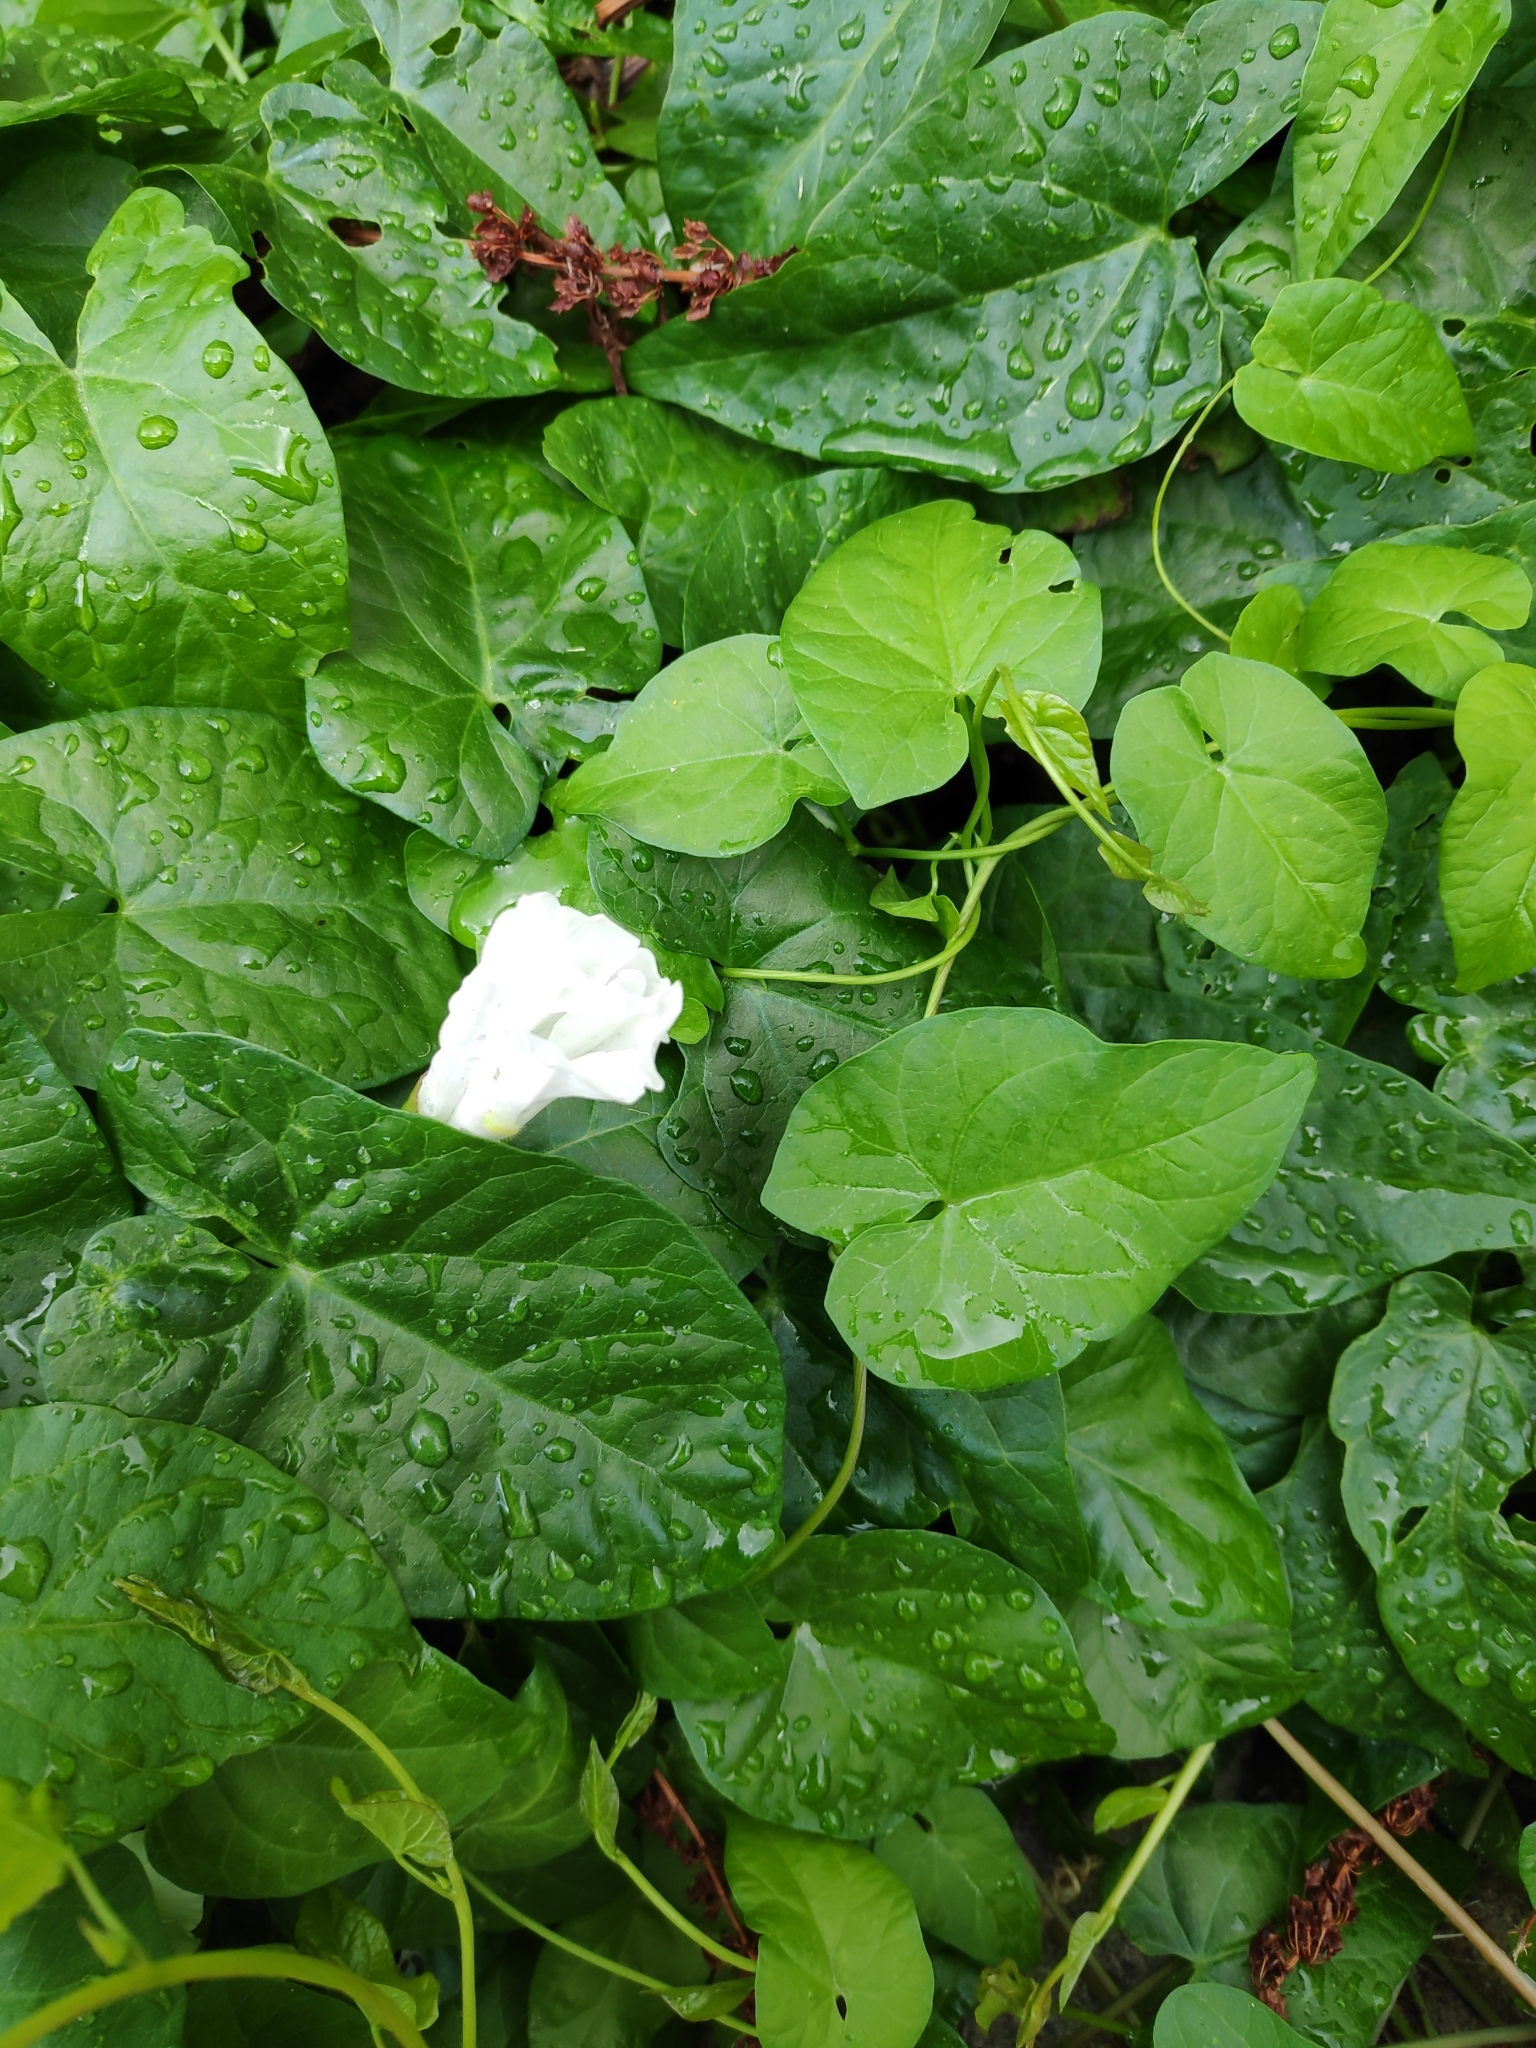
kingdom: Plantae
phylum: Tracheophyta
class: Magnoliopsida
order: Solanales
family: Convolvulaceae
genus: Calystegia
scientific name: Calystegia sepium
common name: Hedge bindweed
